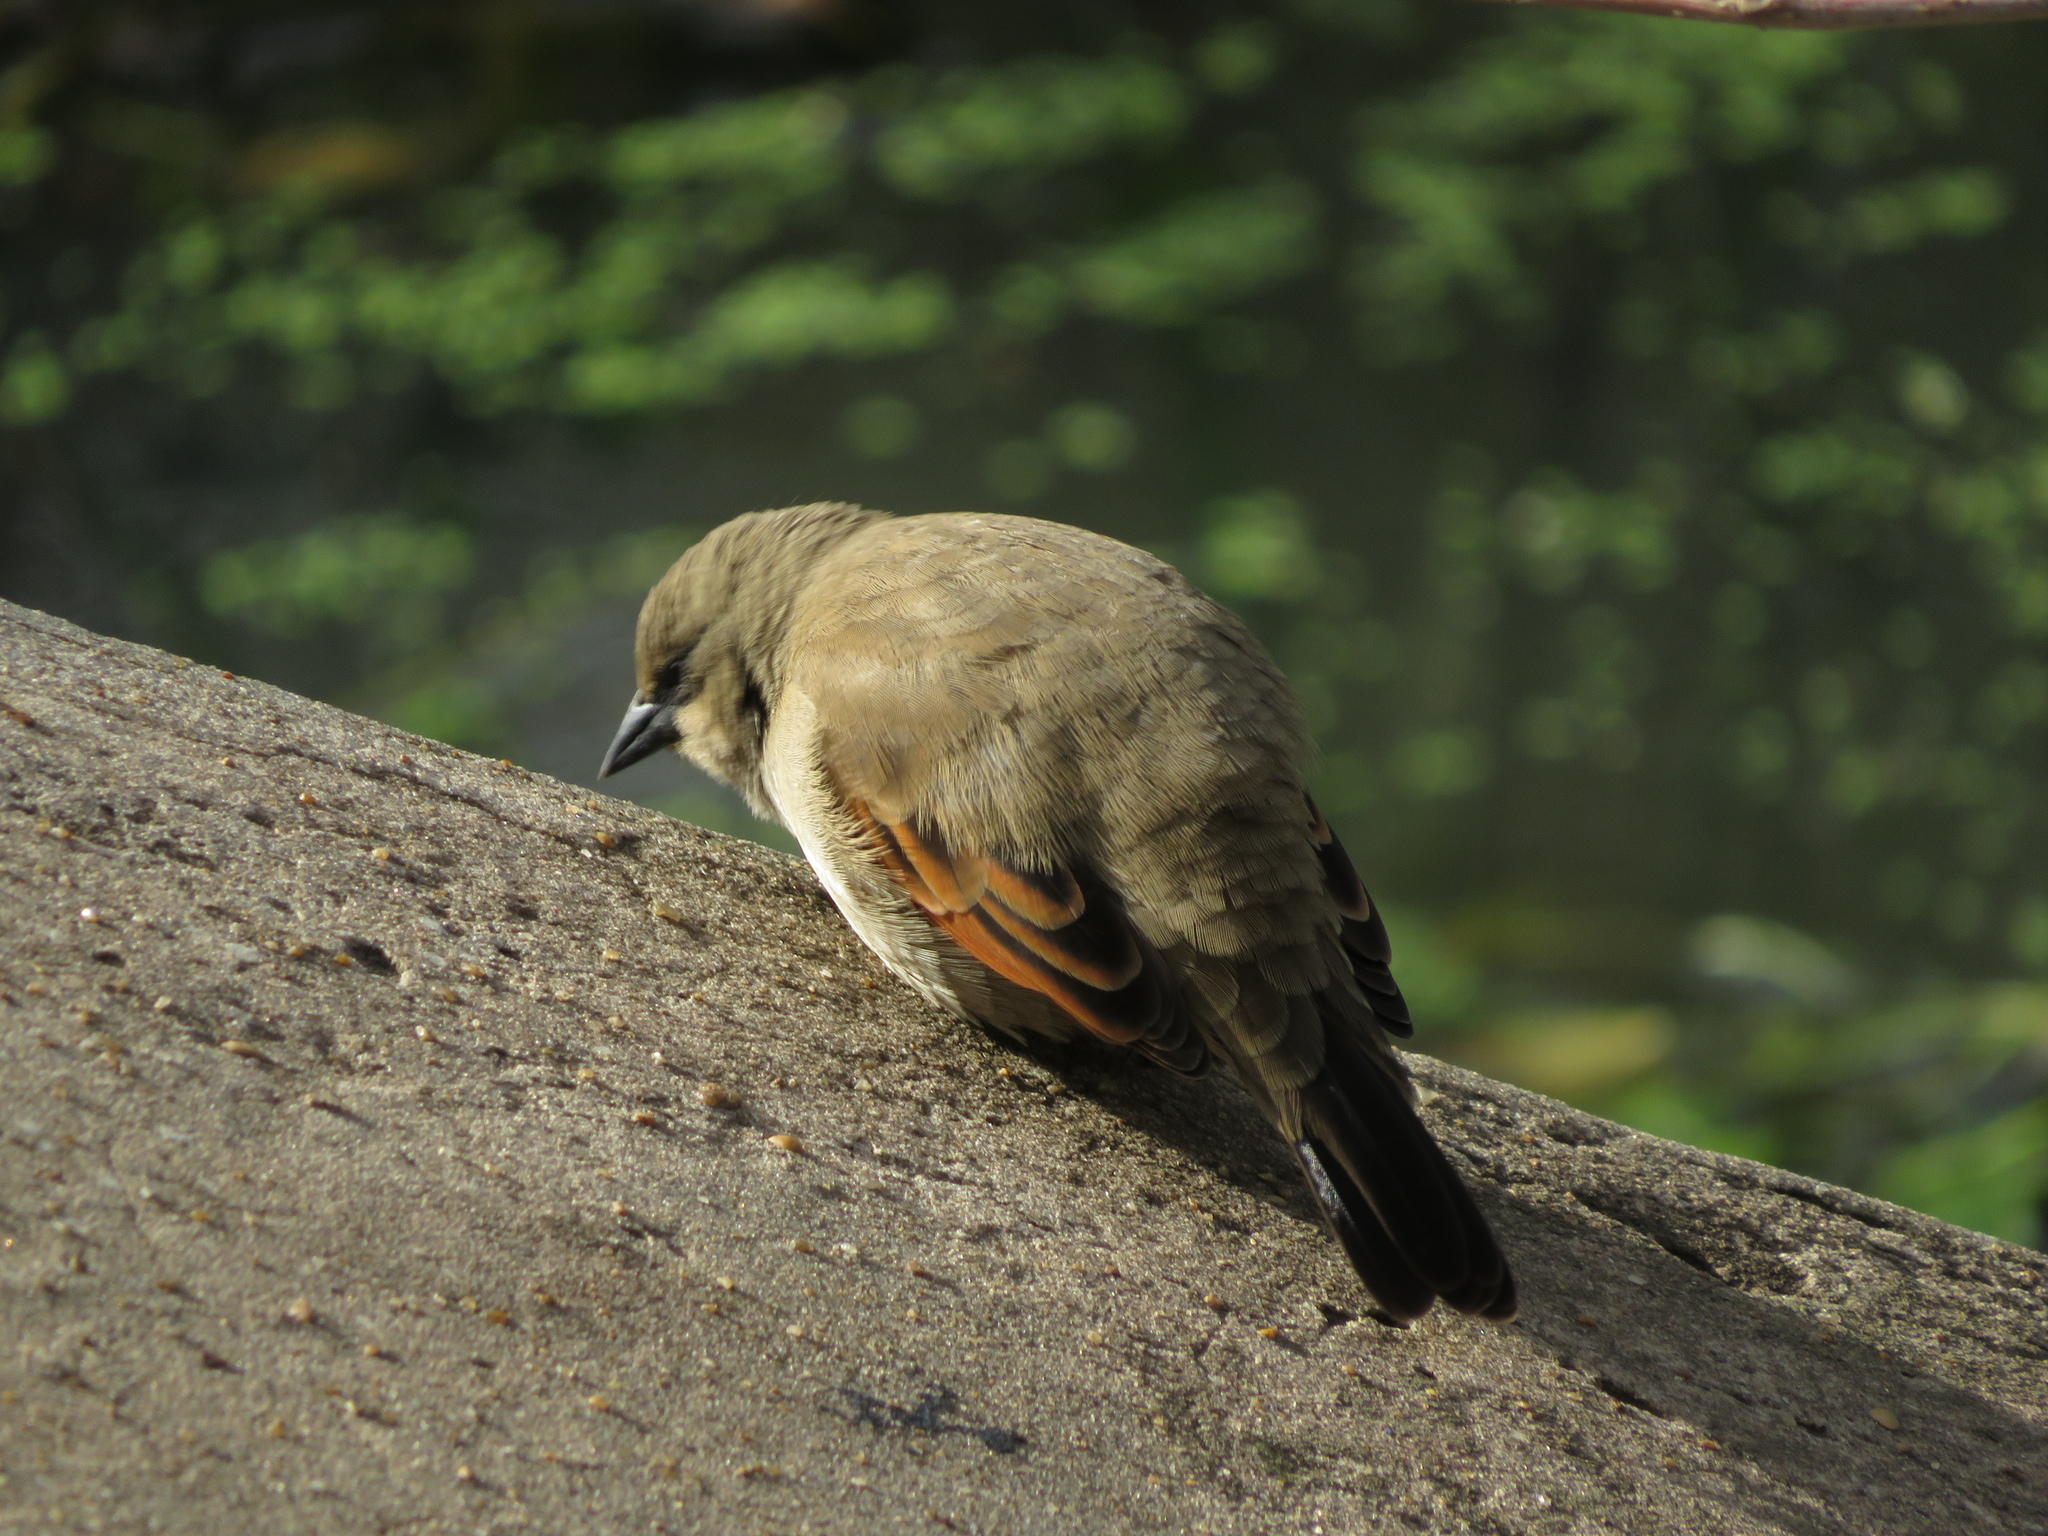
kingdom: Animalia
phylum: Chordata
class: Aves
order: Passeriformes
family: Icteridae
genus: Agelaioides
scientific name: Agelaioides badius
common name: Baywing
